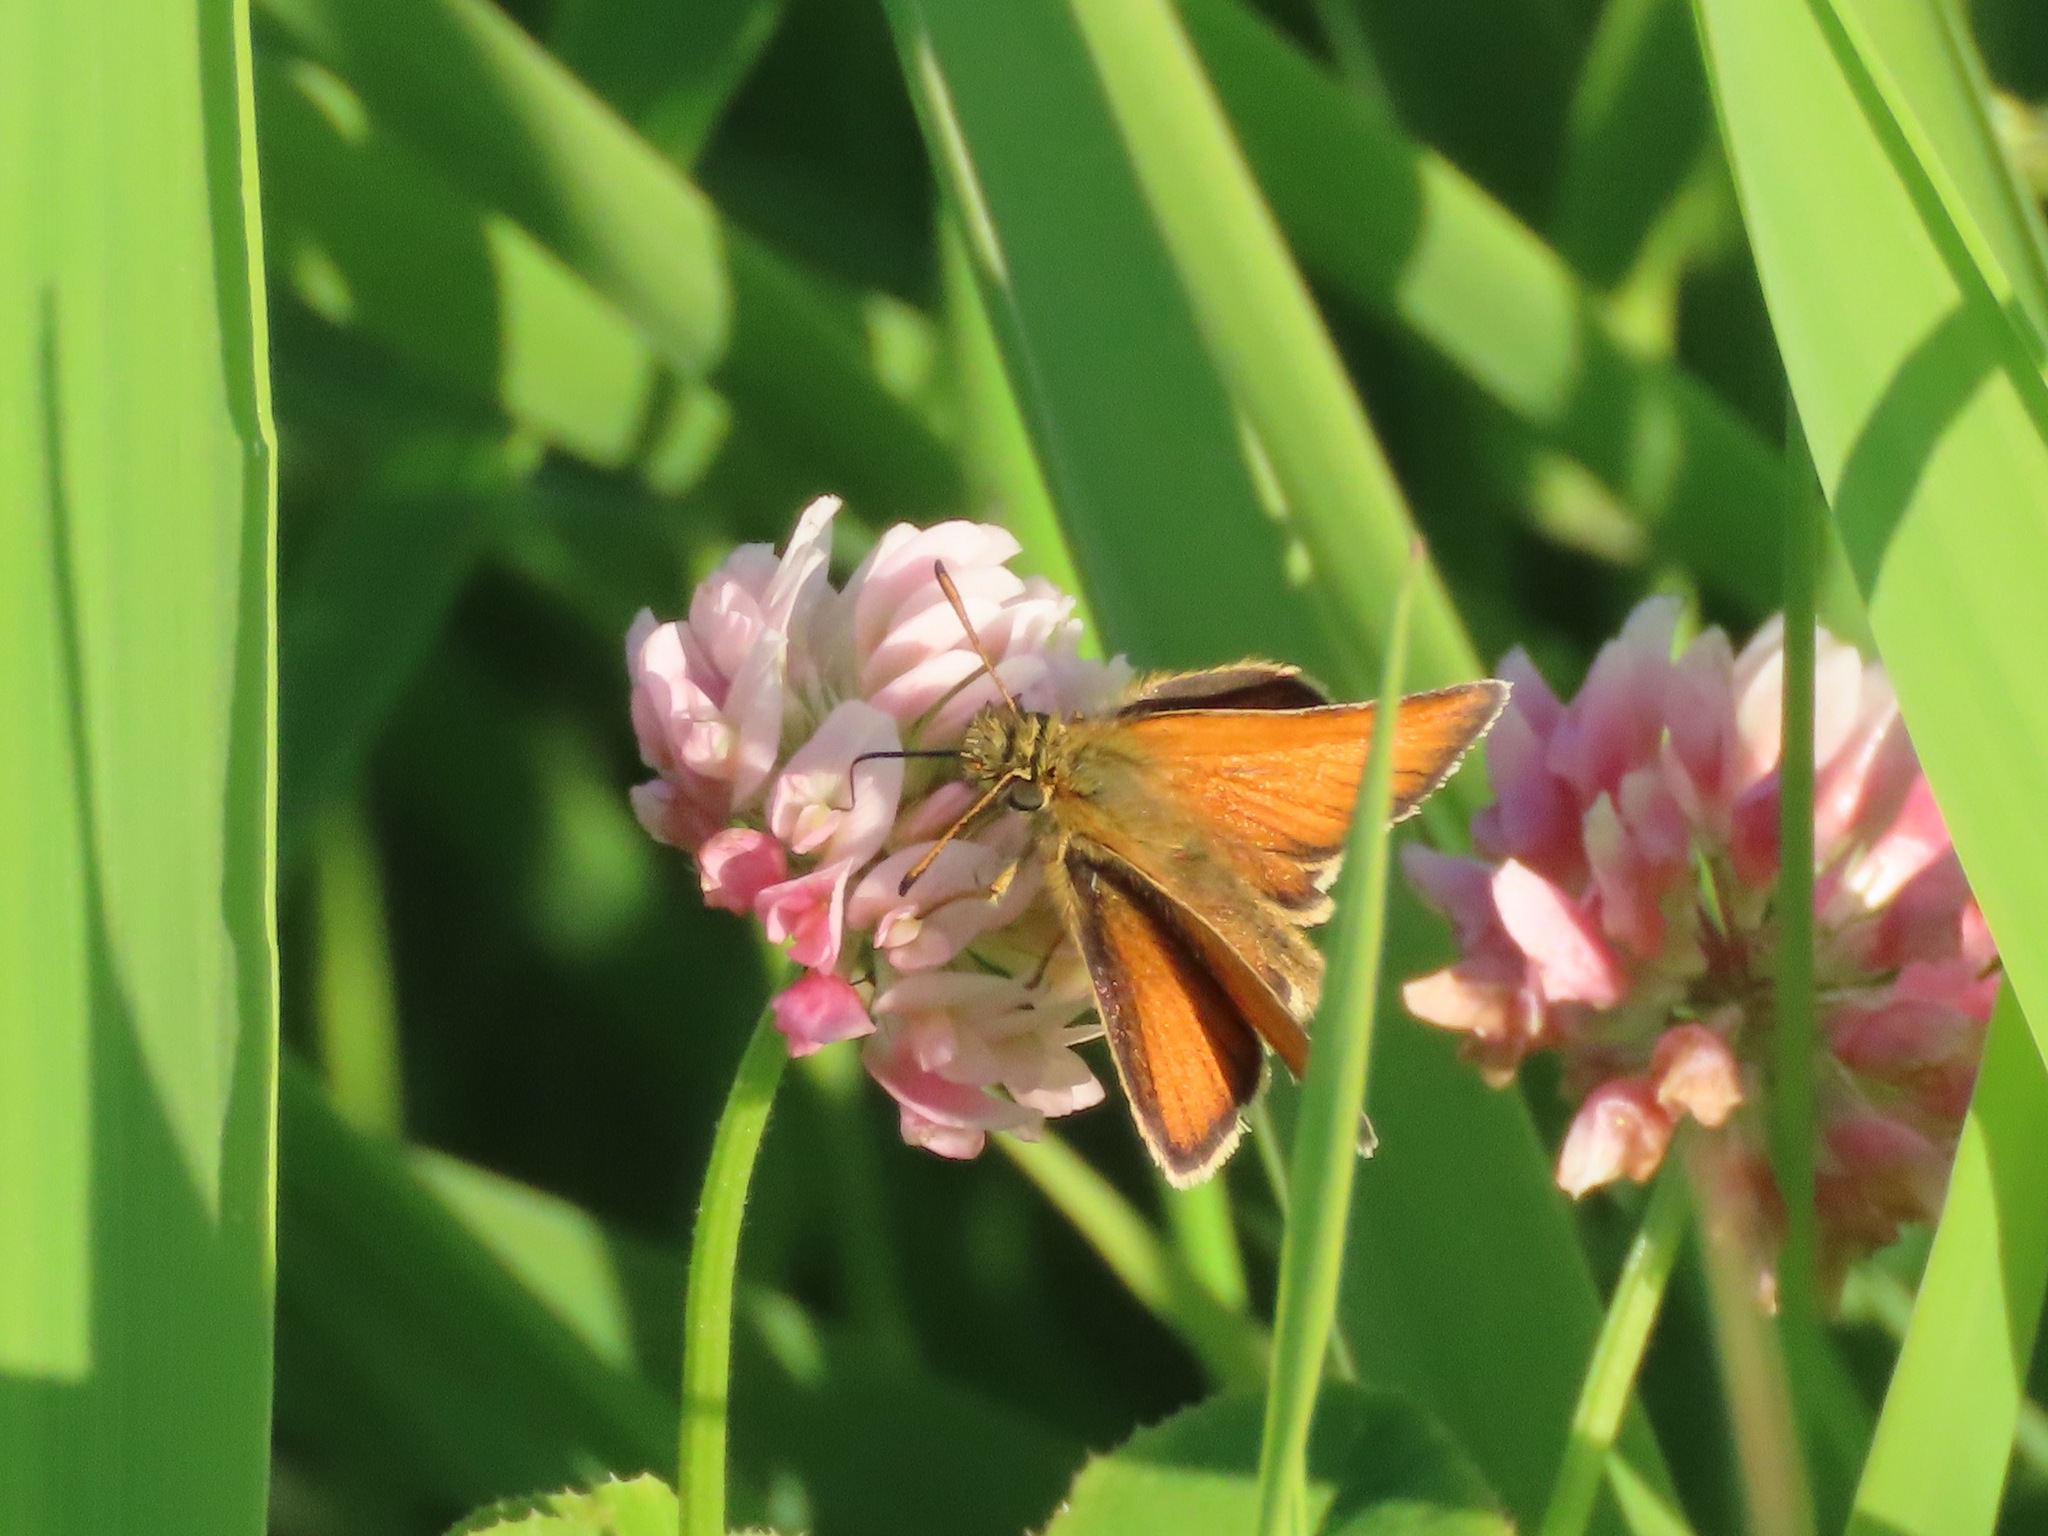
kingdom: Animalia
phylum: Arthropoda
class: Insecta
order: Lepidoptera
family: Hesperiidae
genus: Thymelicus
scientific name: Thymelicus lineola
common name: Essex skipper
